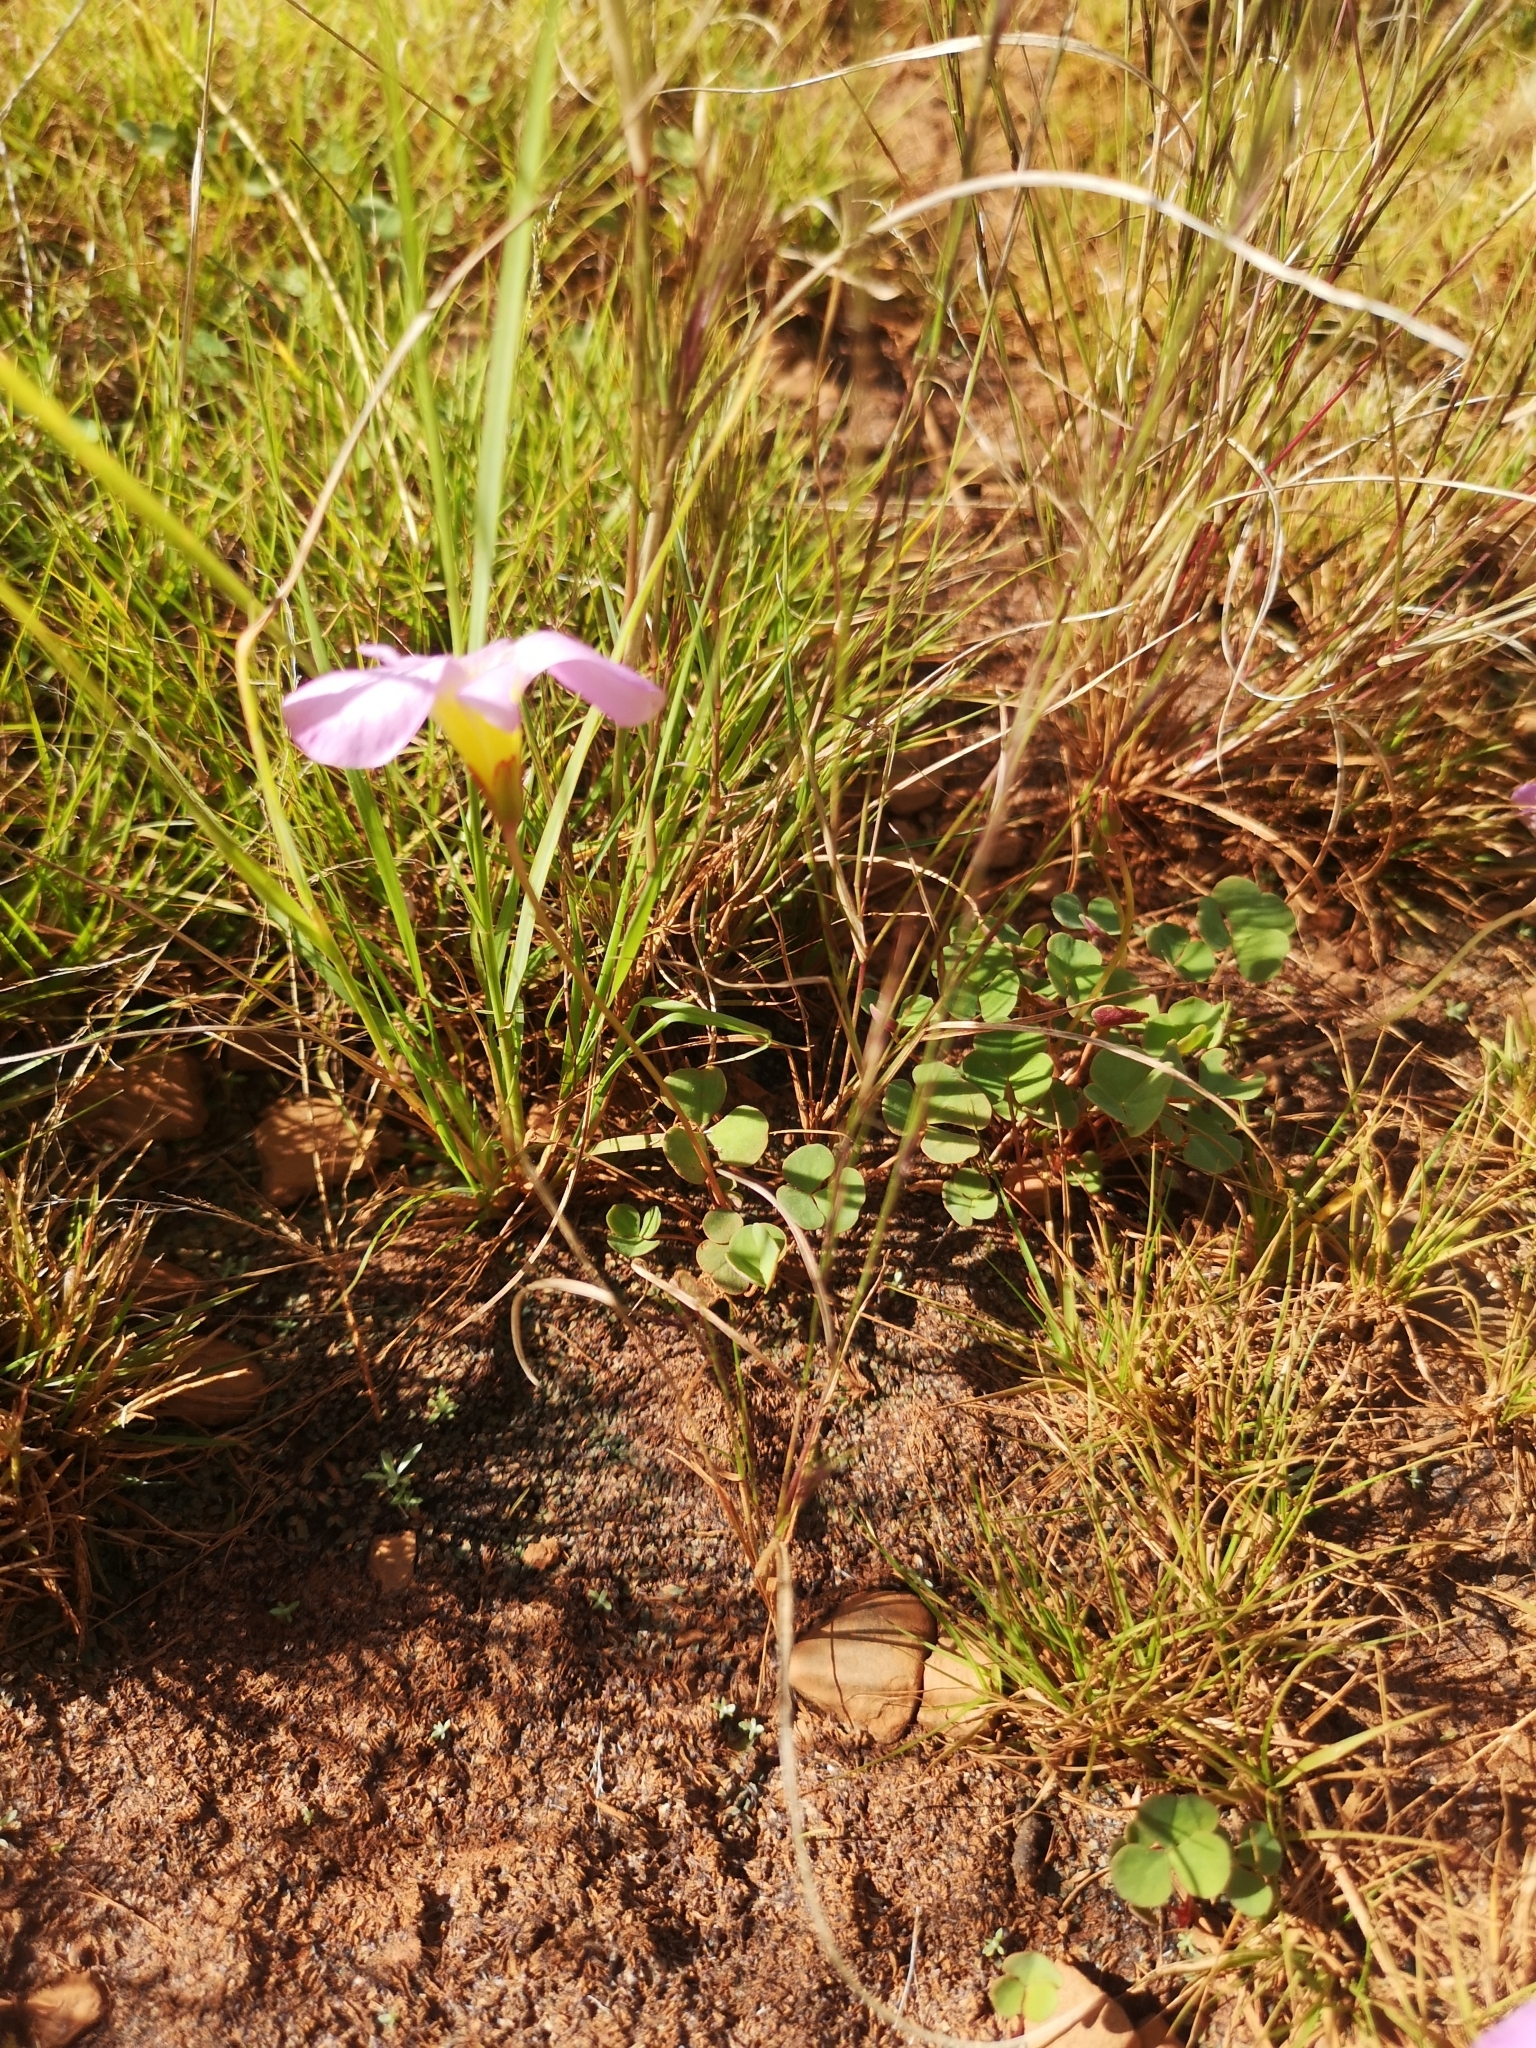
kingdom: Plantae
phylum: Tracheophyta
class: Magnoliopsida
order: Oxalidales
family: Oxalidaceae
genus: Oxalis
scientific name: Oxalis obliquifolia
